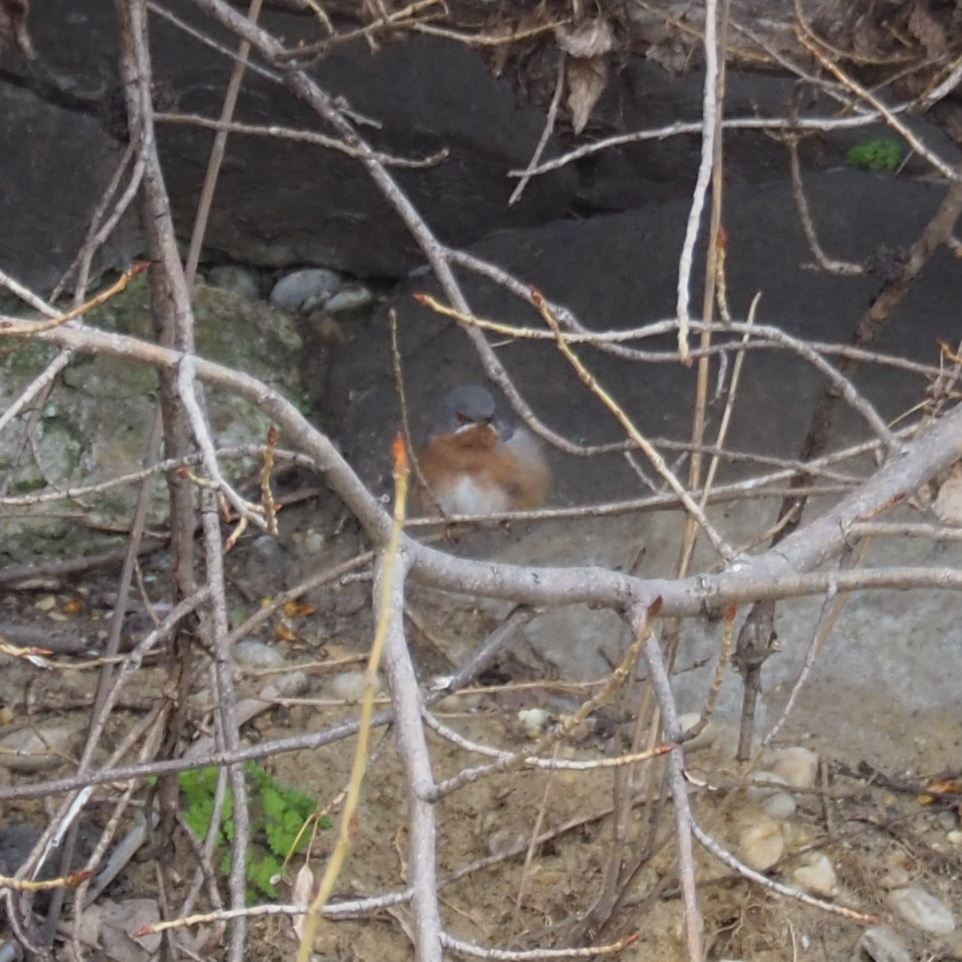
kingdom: Animalia
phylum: Chordata
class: Aves
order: Passeriformes
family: Sylviidae
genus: Curruca
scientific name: Curruca cantillans
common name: Subalpine warbler
